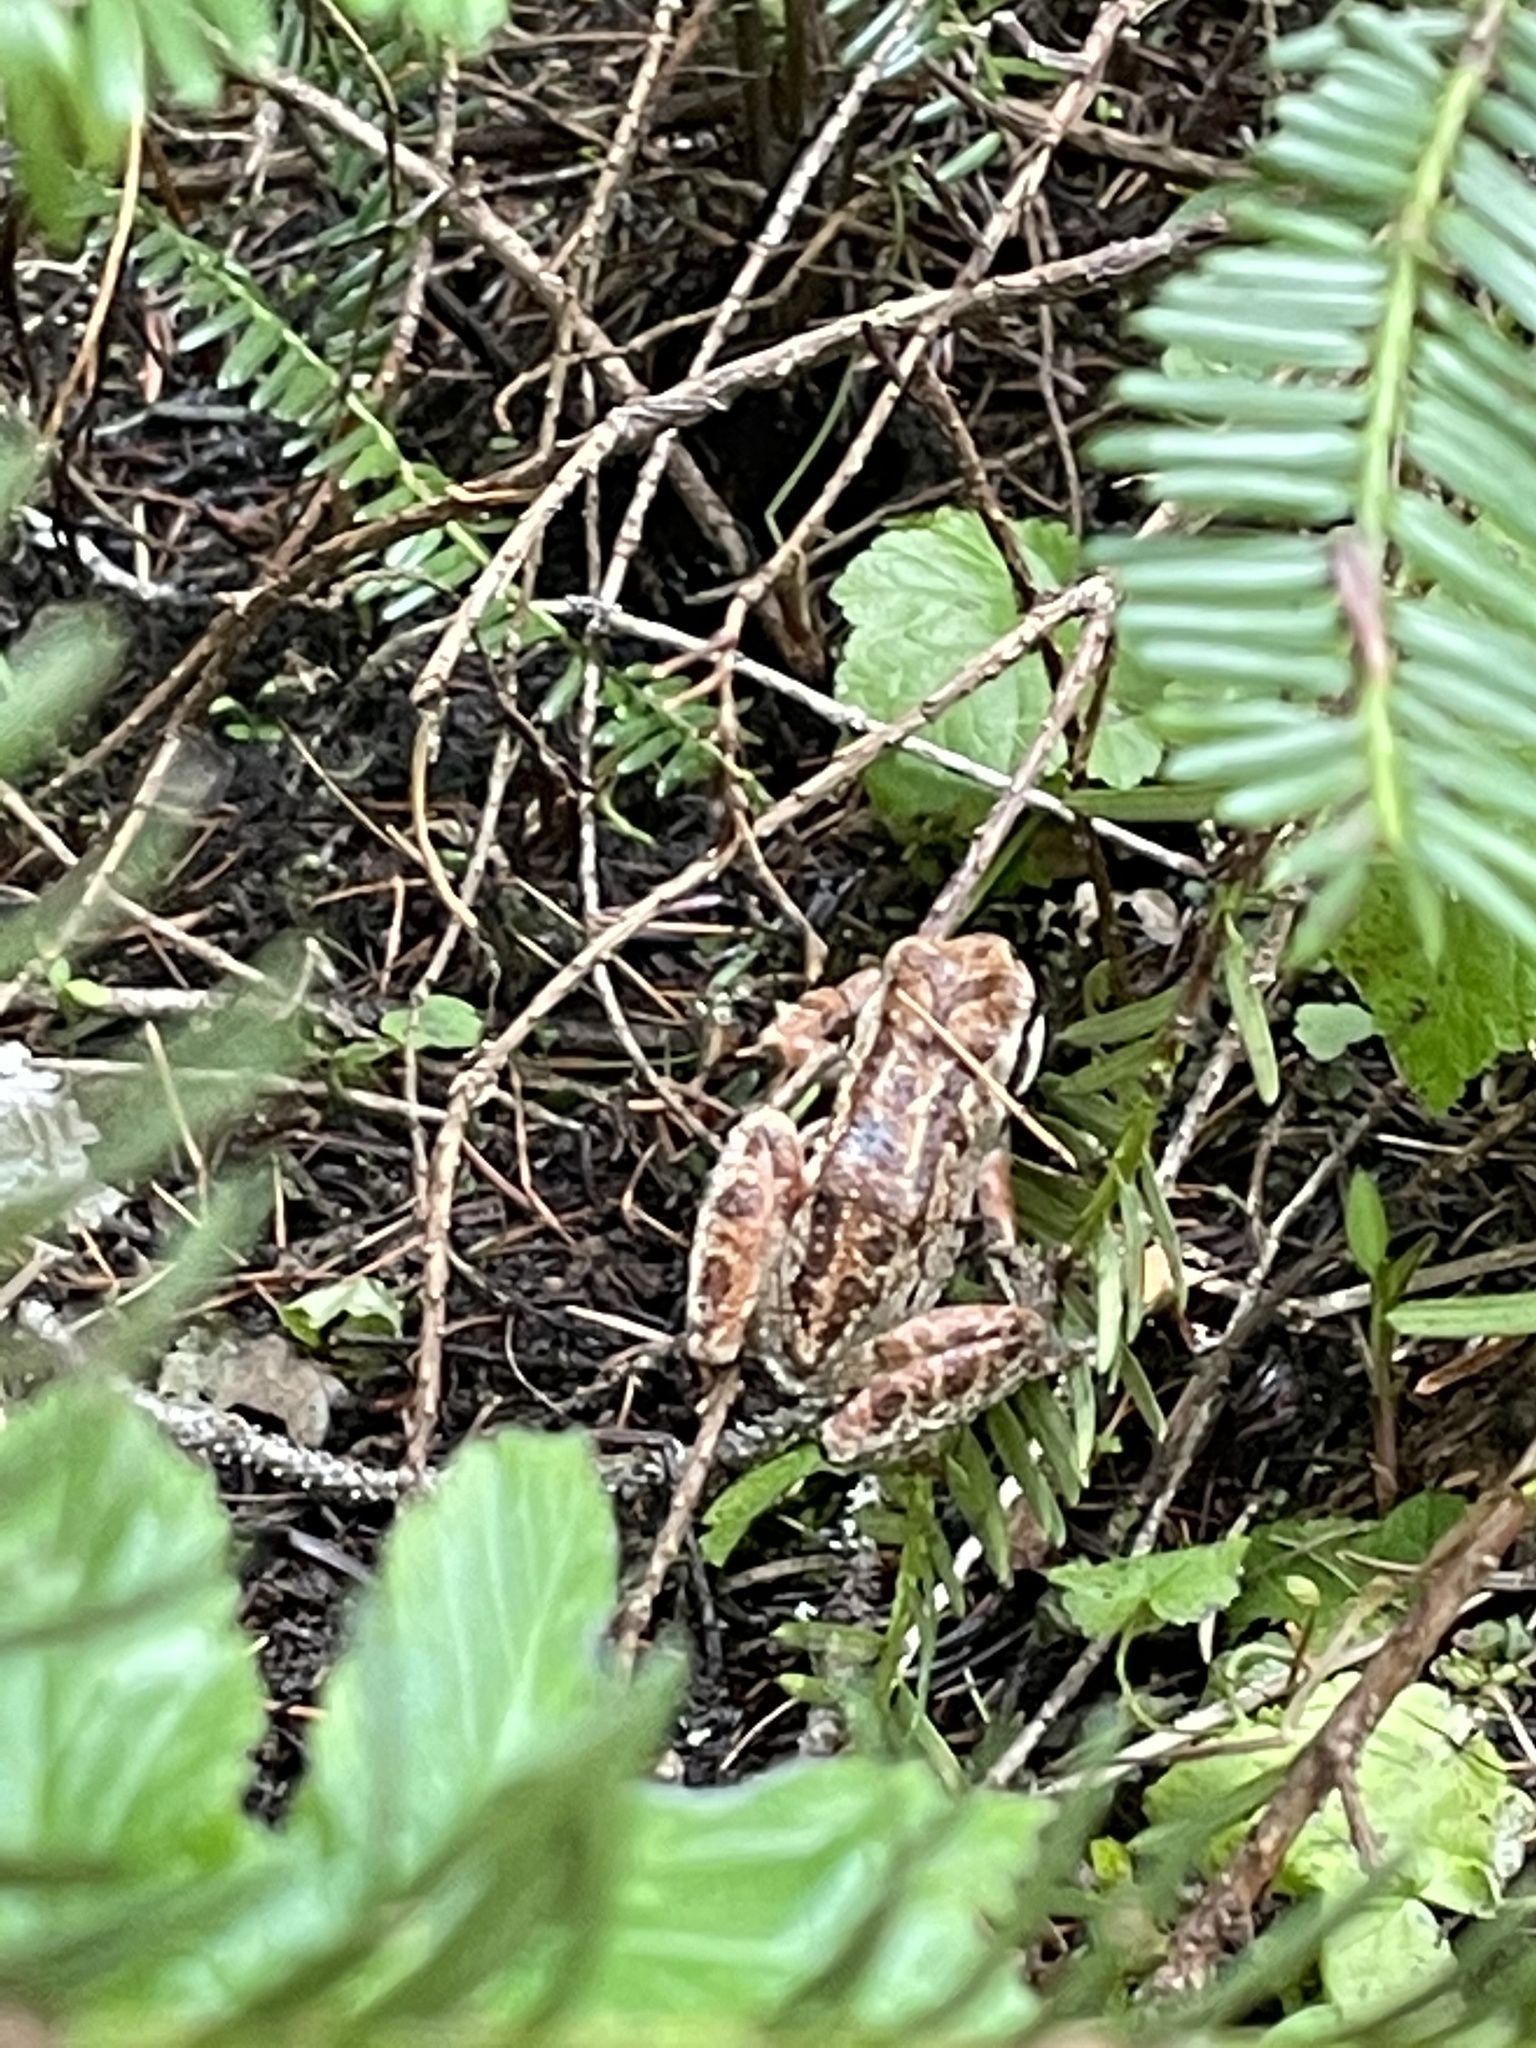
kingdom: Animalia
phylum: Chordata
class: Amphibia
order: Anura
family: Hylidae
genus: Pseudacris
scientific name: Pseudacris regilla
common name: Pacific chorus frog
